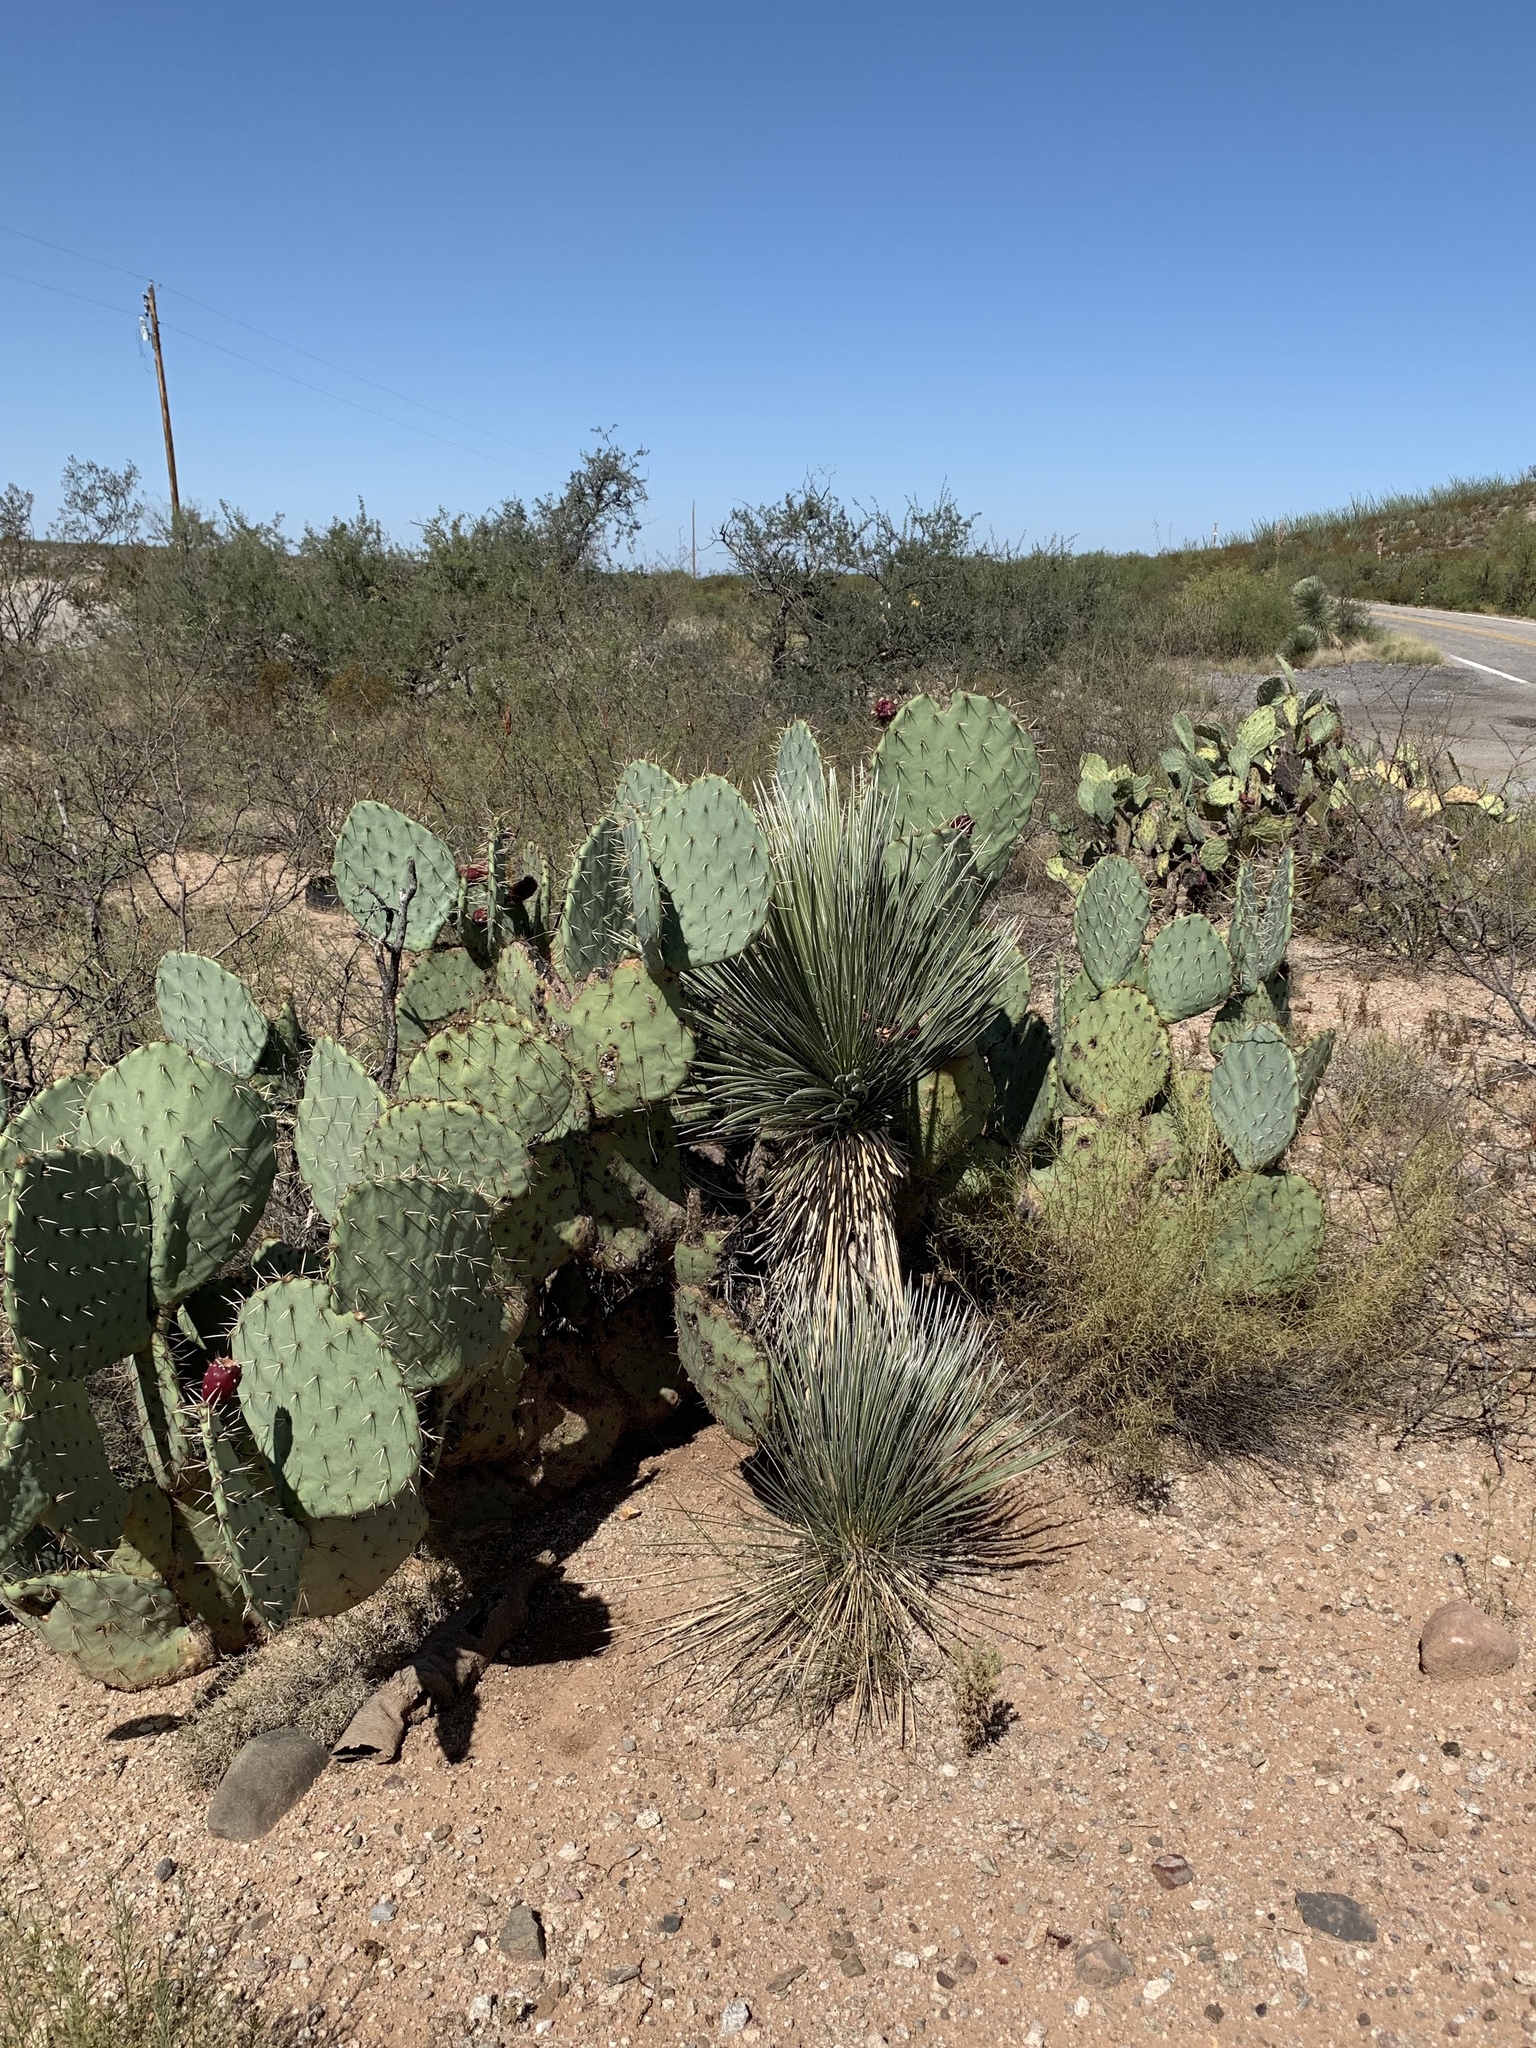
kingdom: Plantae
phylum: Tracheophyta
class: Liliopsida
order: Asparagales
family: Asparagaceae
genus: Yucca
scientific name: Yucca elata
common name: Palmella
